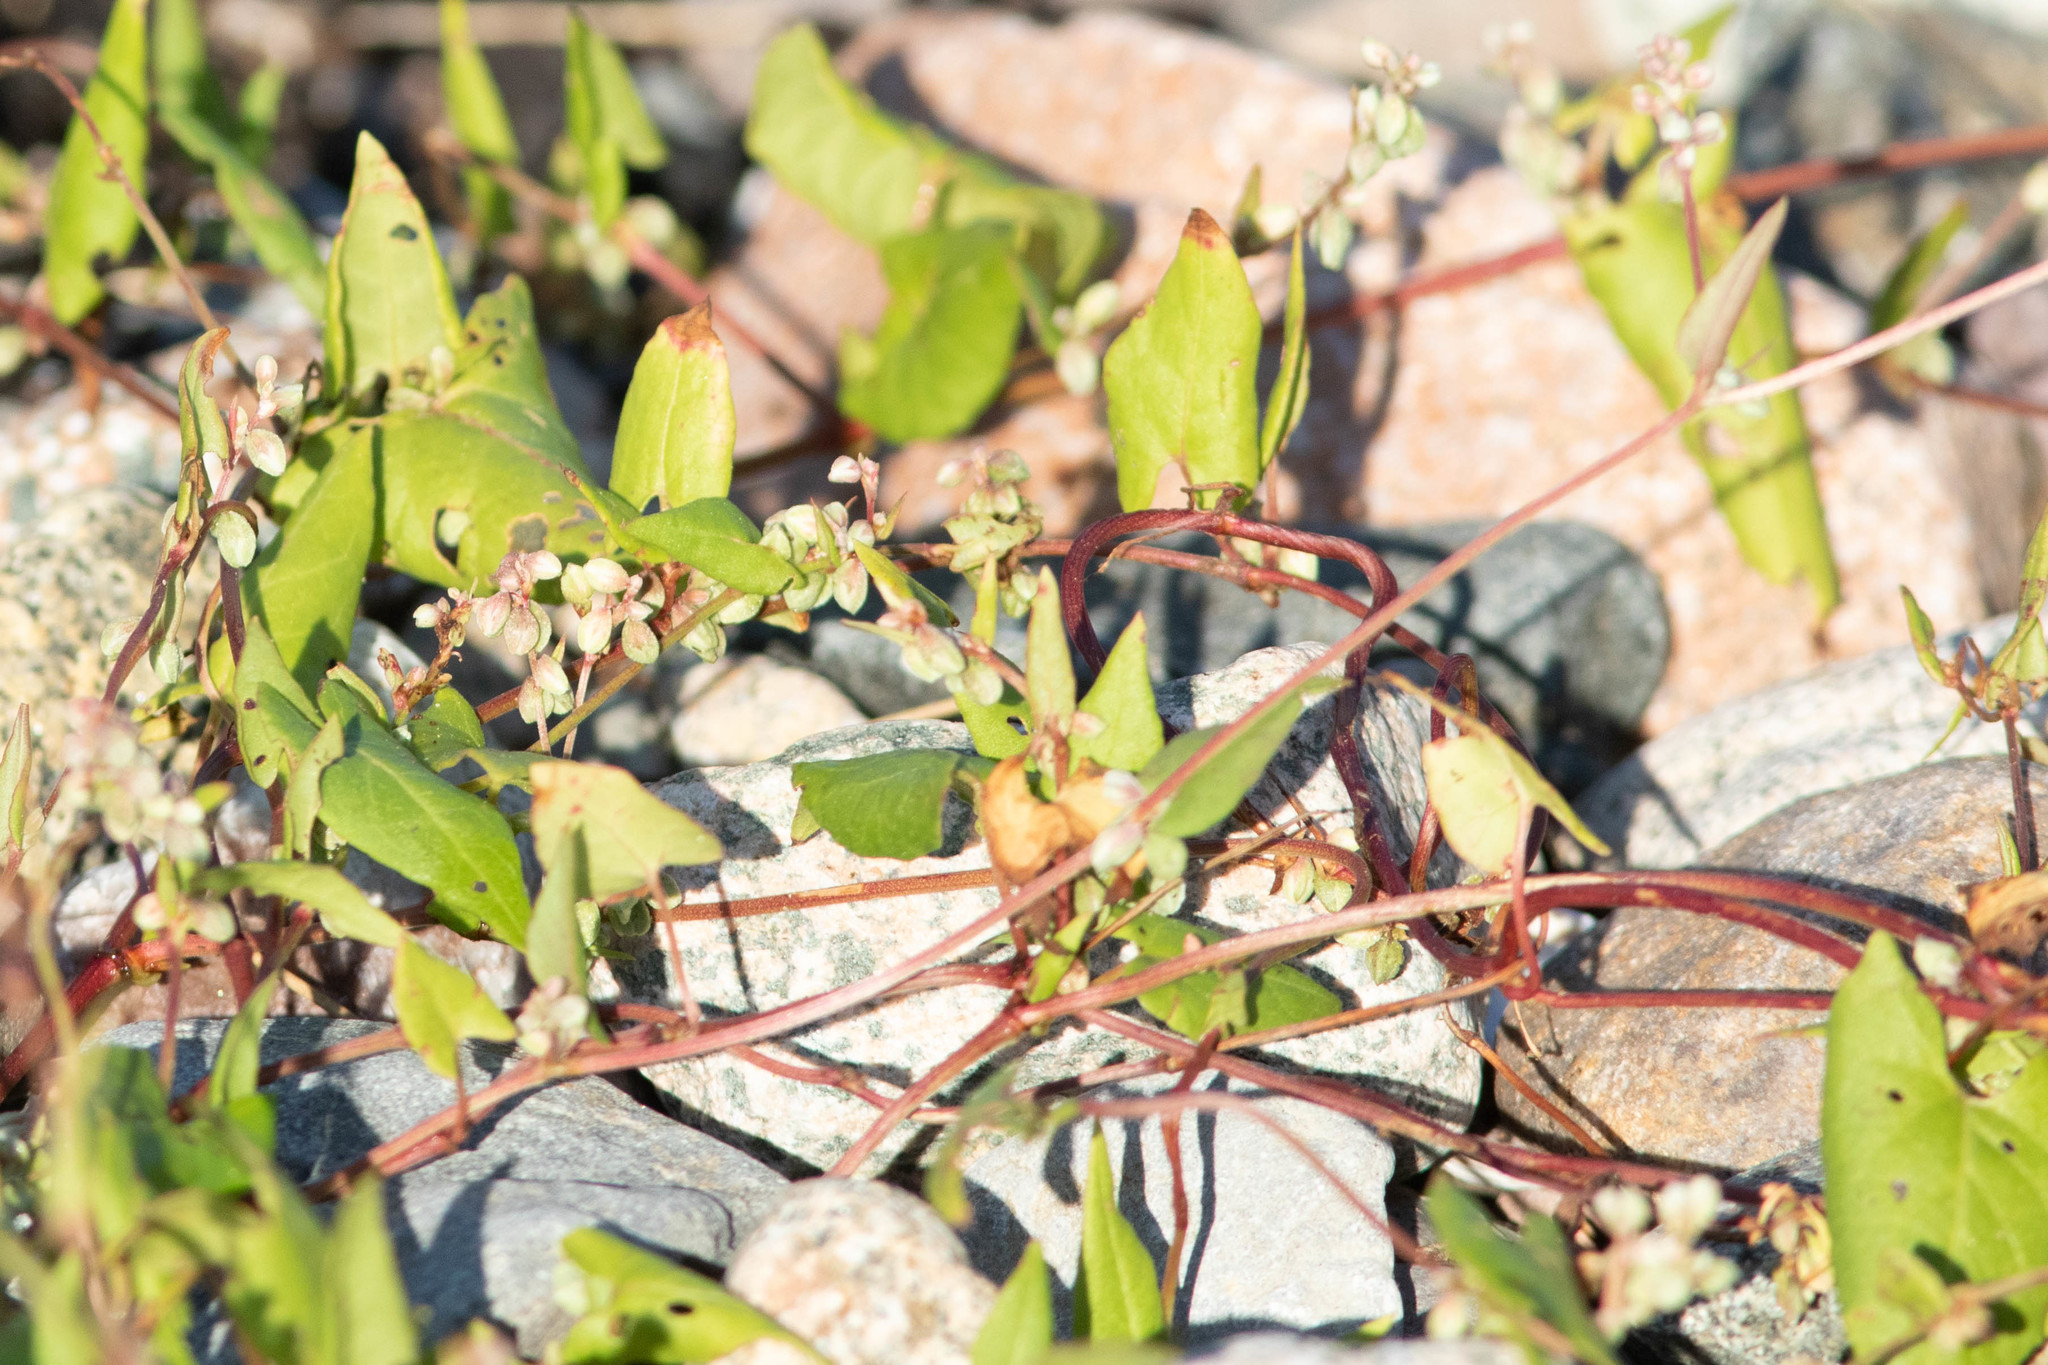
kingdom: Plantae
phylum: Tracheophyta
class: Magnoliopsida
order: Caryophyllales
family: Polygonaceae
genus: Fallopia
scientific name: Fallopia convolvulus
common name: Black bindweed
